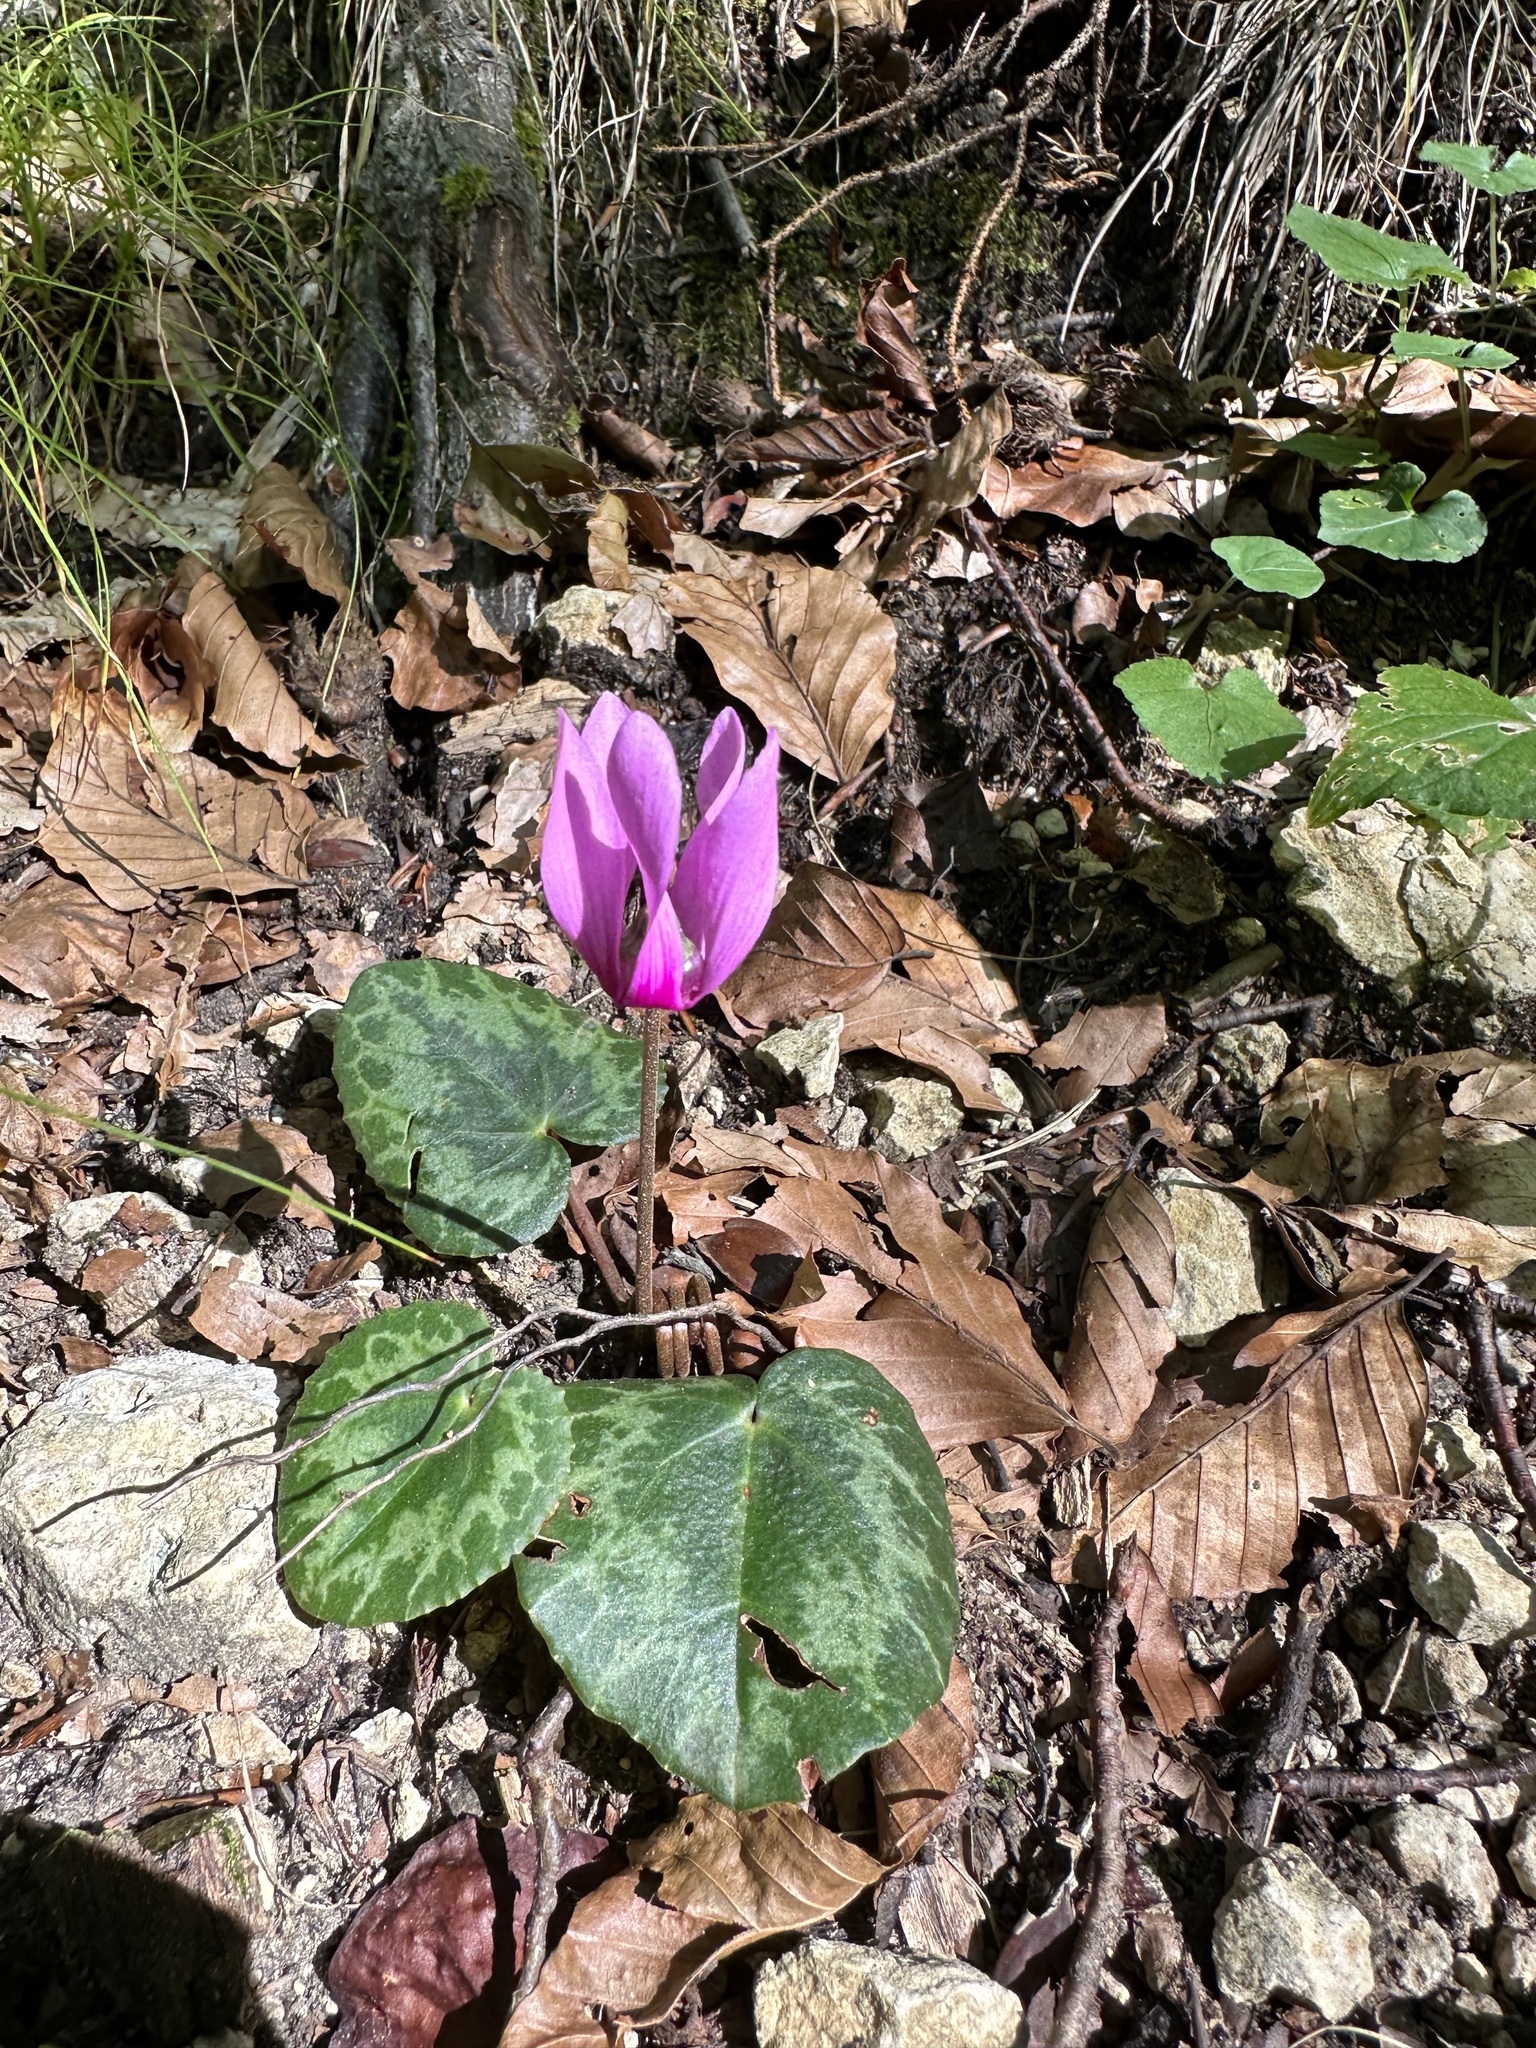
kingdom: Plantae
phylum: Tracheophyta
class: Magnoliopsida
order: Ericales
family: Primulaceae
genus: Cyclamen
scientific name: Cyclamen purpurascens
